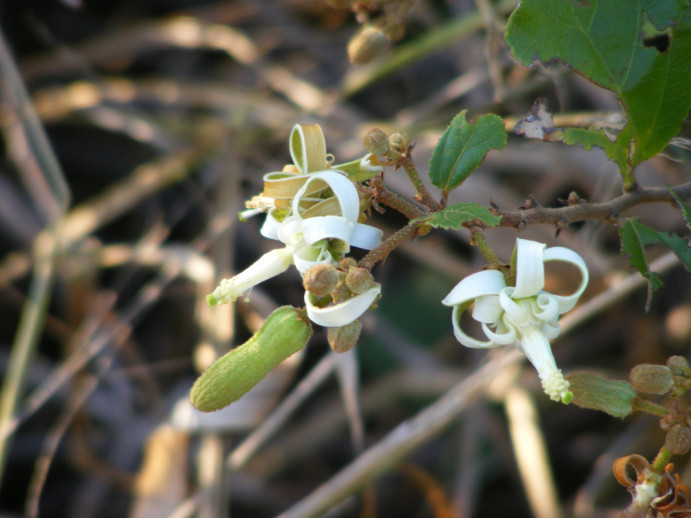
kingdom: Plantae
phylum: Tracheophyta
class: Magnoliopsida
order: Malvales
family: Malvaceae
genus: Grewia
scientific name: Grewia sulcata
